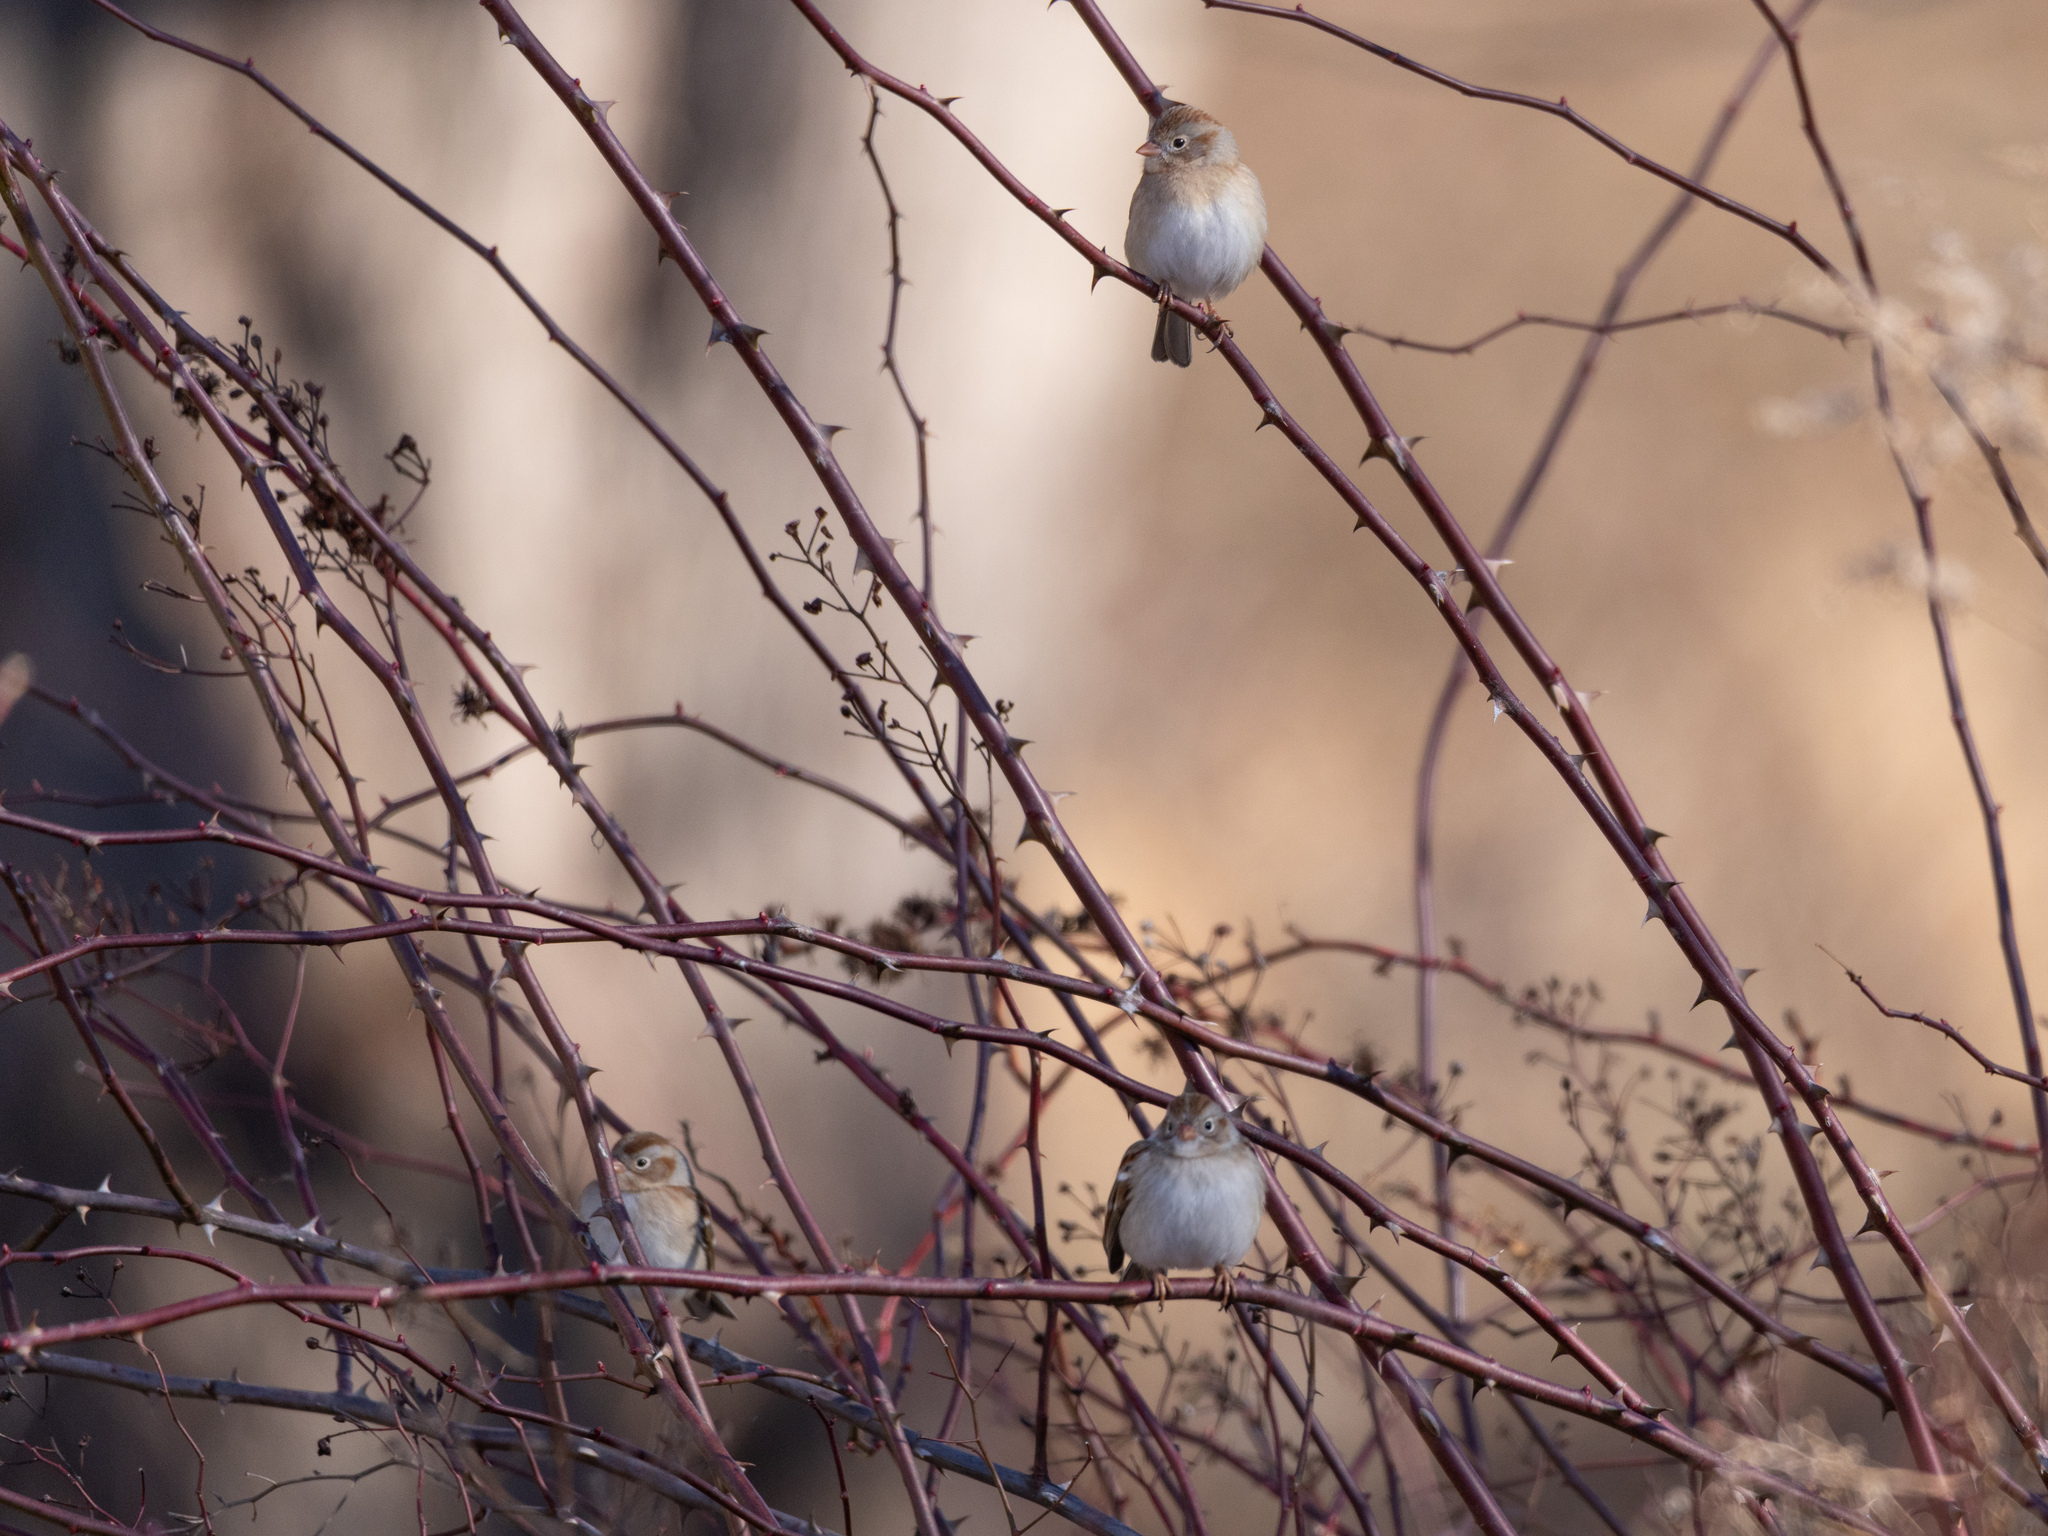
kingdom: Animalia
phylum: Chordata
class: Aves
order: Passeriformes
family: Passerellidae
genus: Spizella
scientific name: Spizella pusilla
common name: Field sparrow
